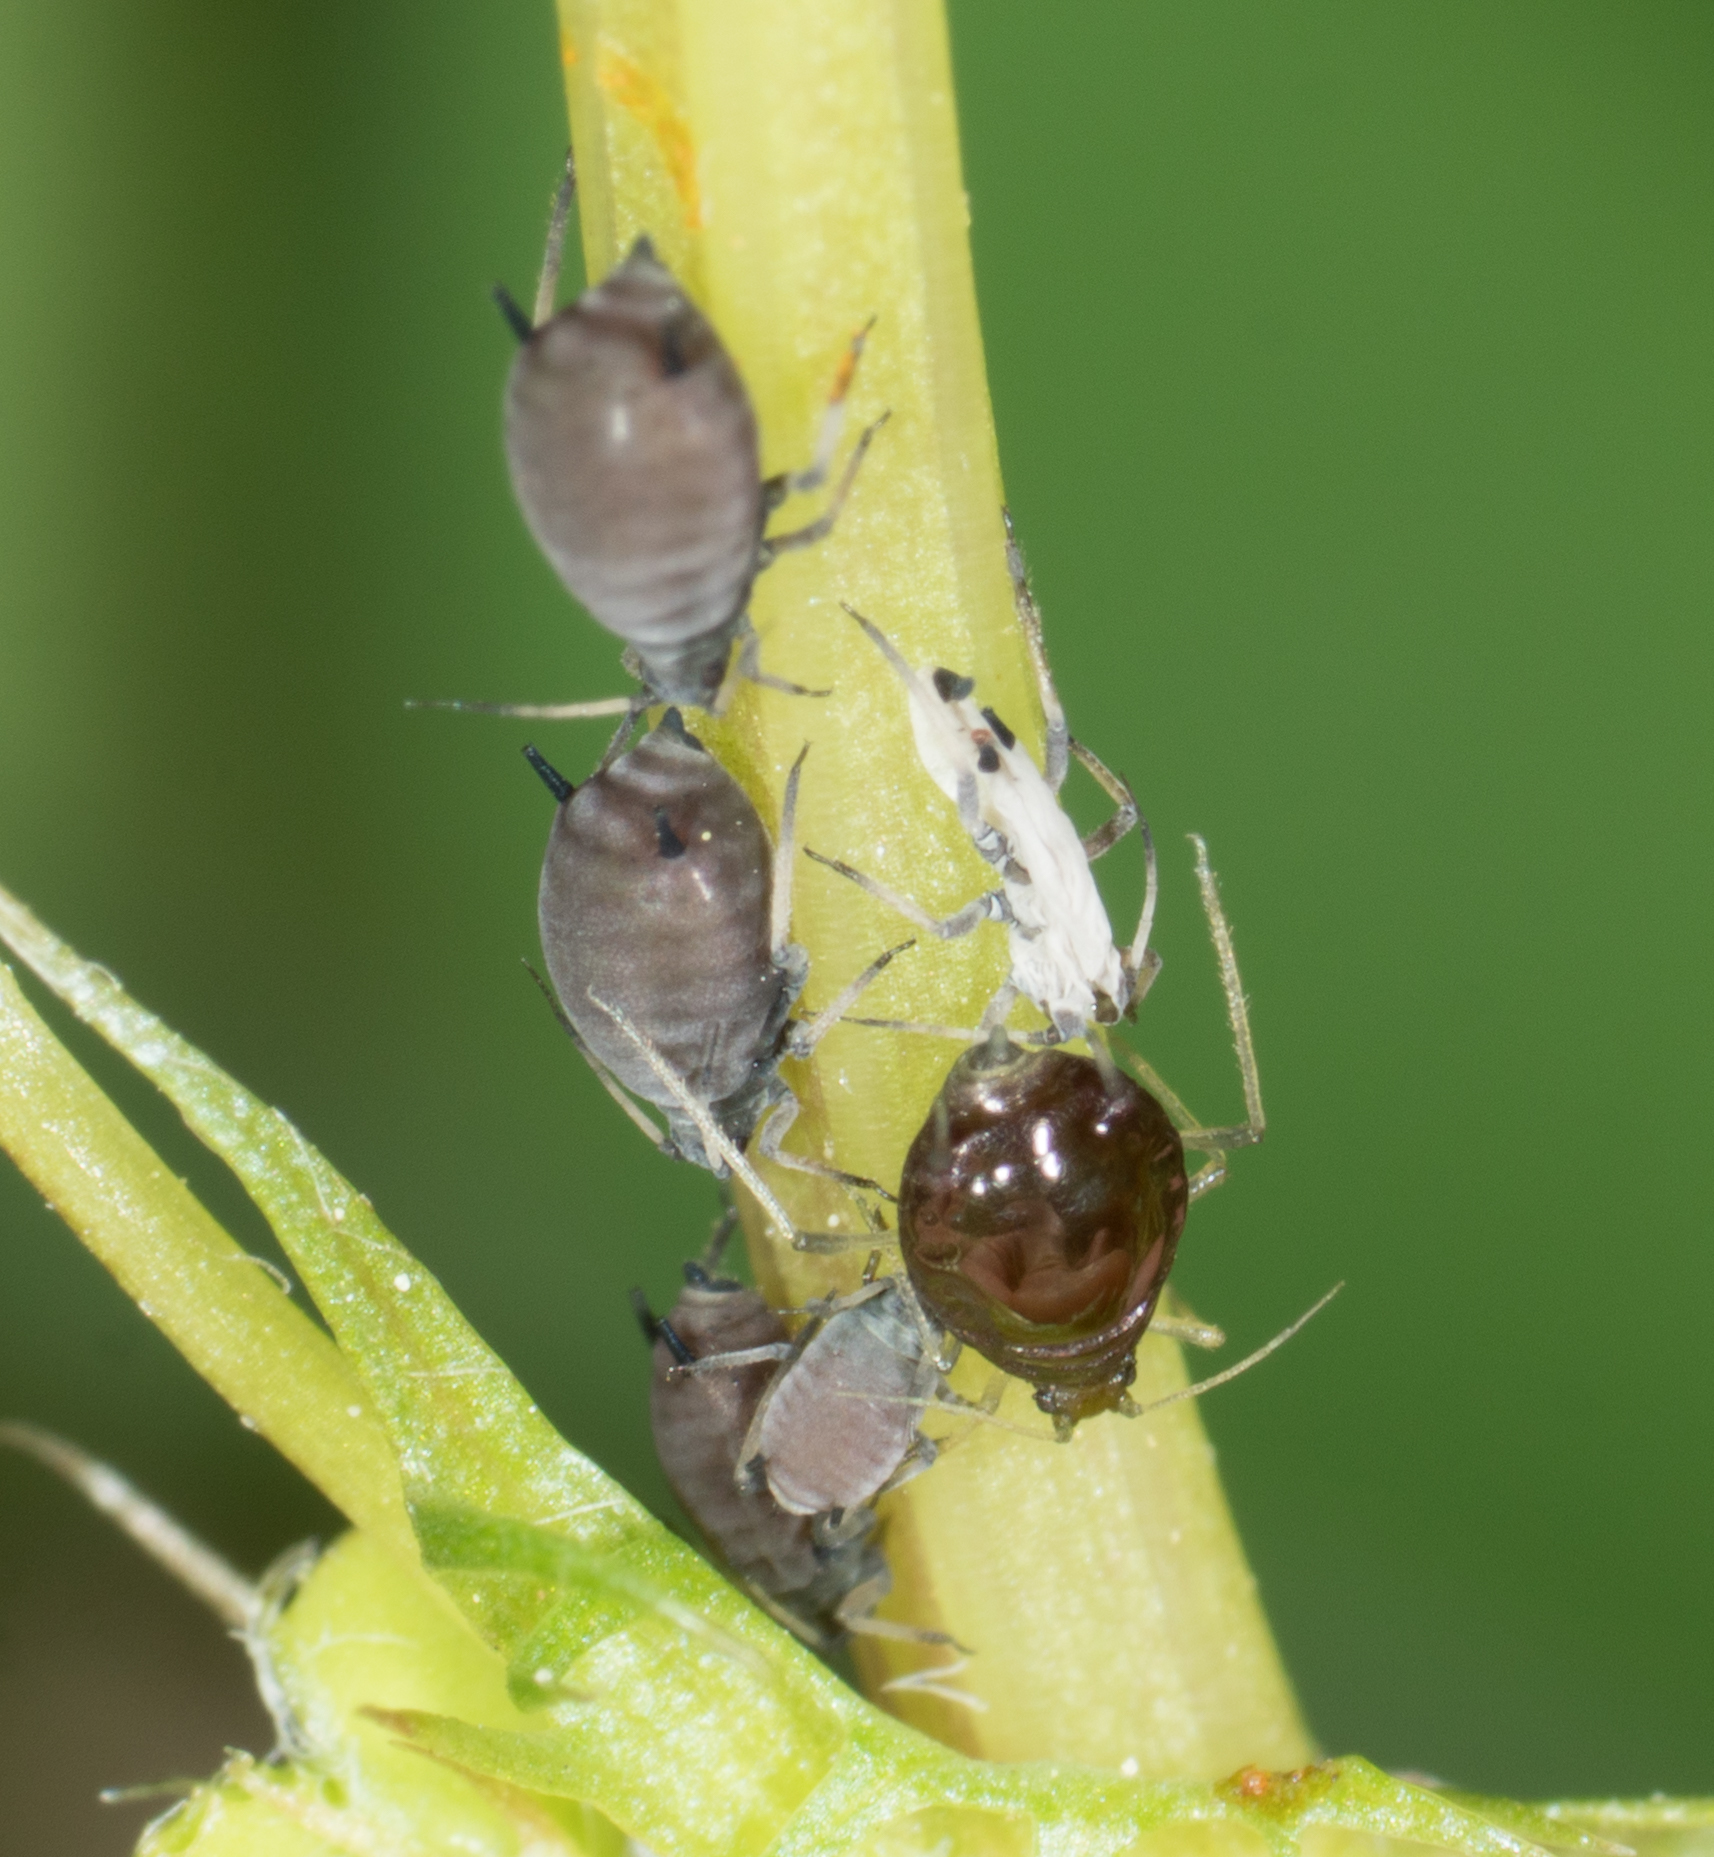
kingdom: Animalia
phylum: Arthropoda
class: Insecta
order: Hemiptera
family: Aphididae
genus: Aphis
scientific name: Aphis craccivora
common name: Cowpea aphid
